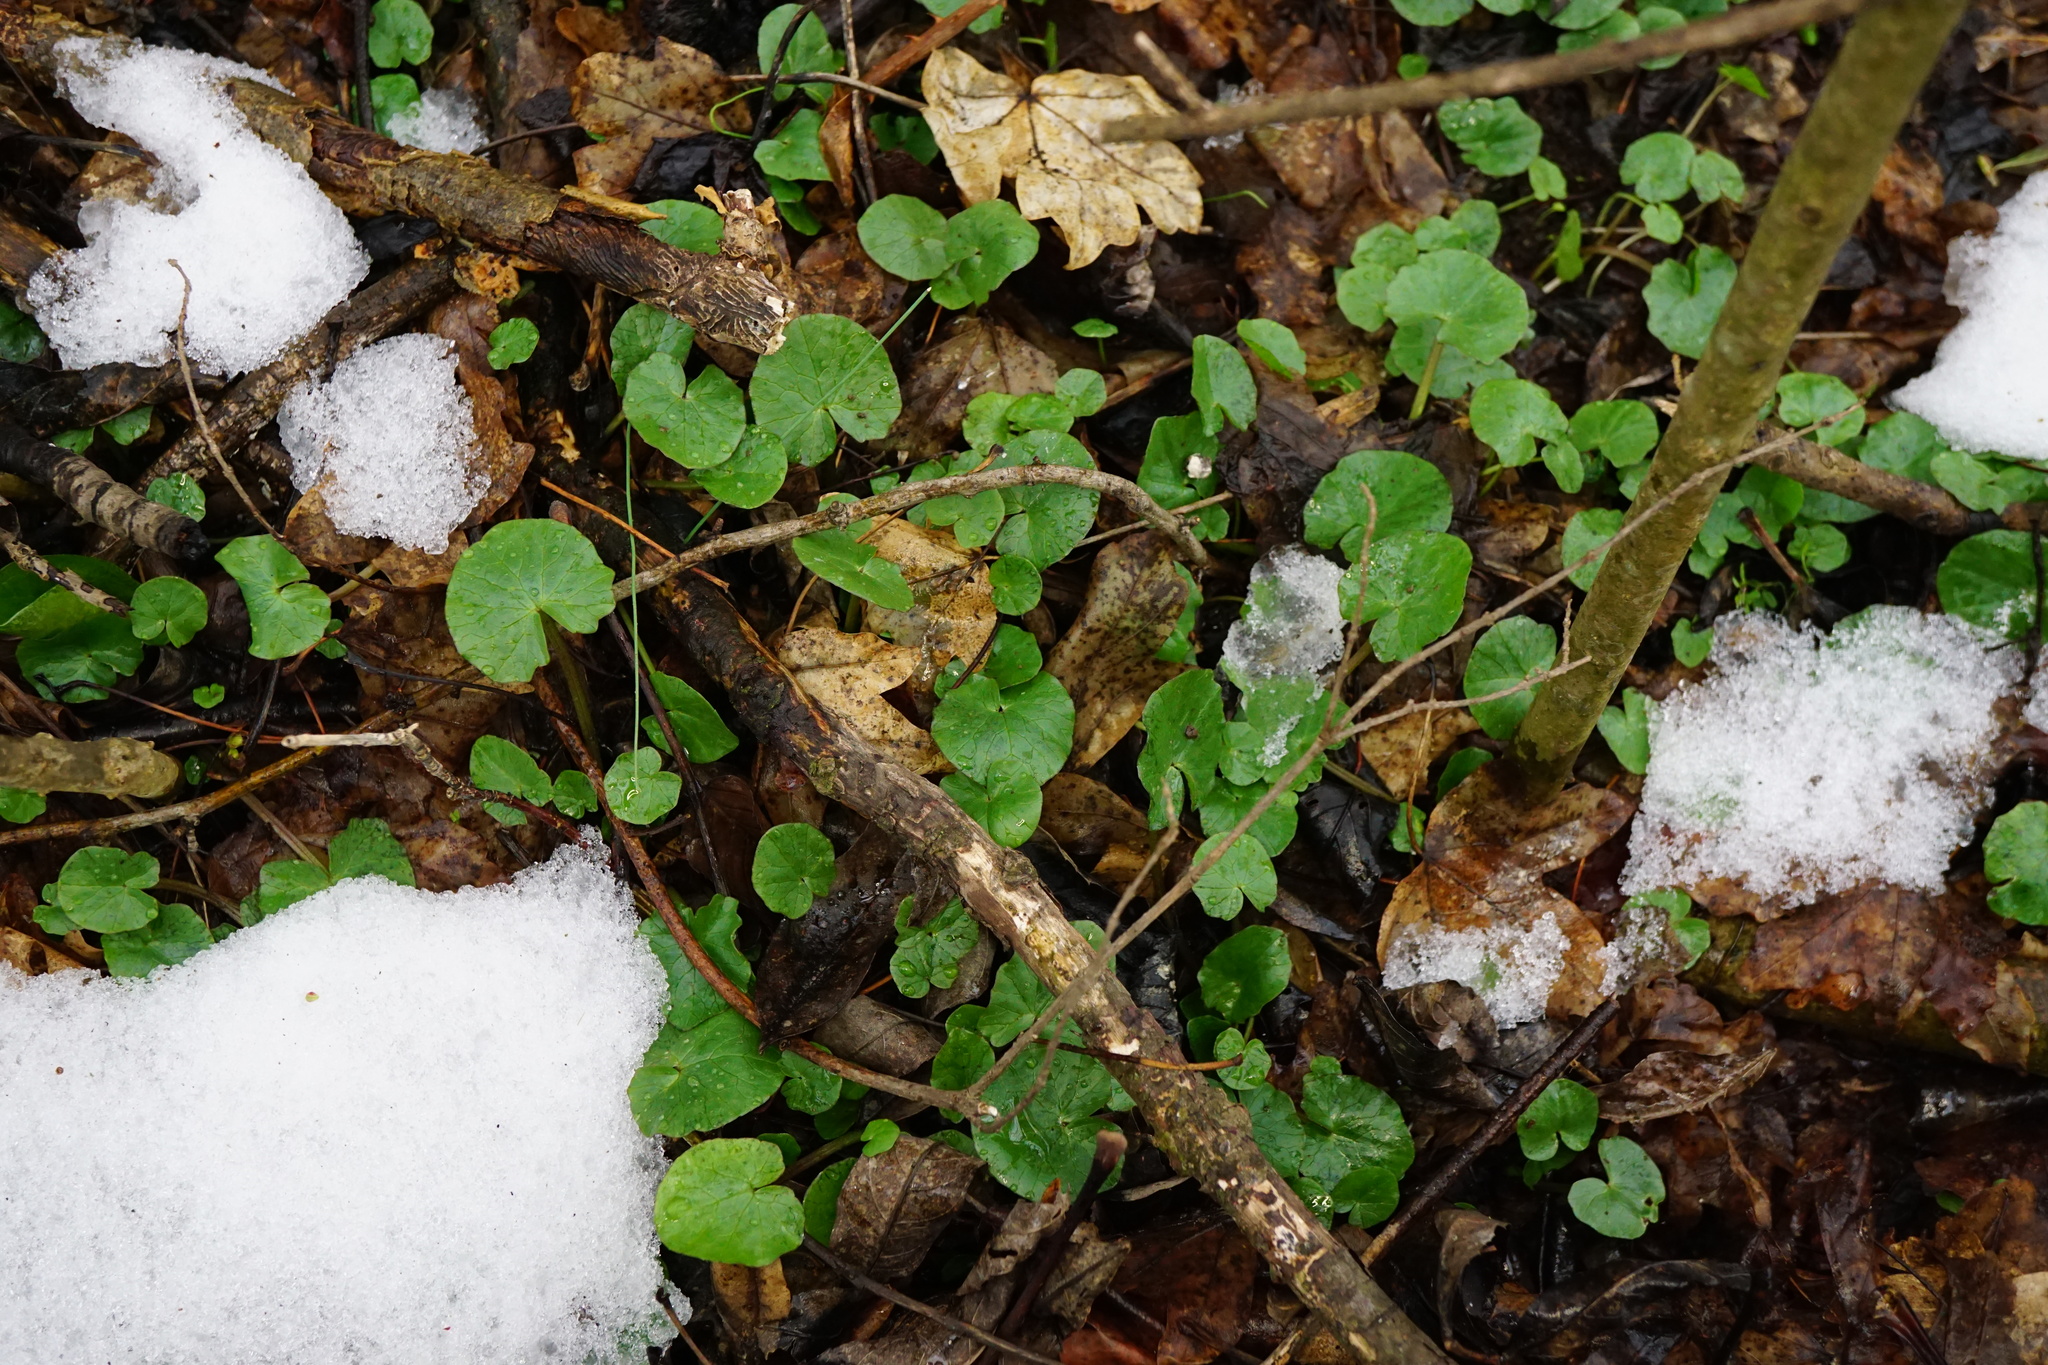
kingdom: Plantae
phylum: Tracheophyta
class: Magnoliopsida
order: Ranunculales
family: Ranunculaceae
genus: Ficaria
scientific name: Ficaria verna
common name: Lesser celandine
